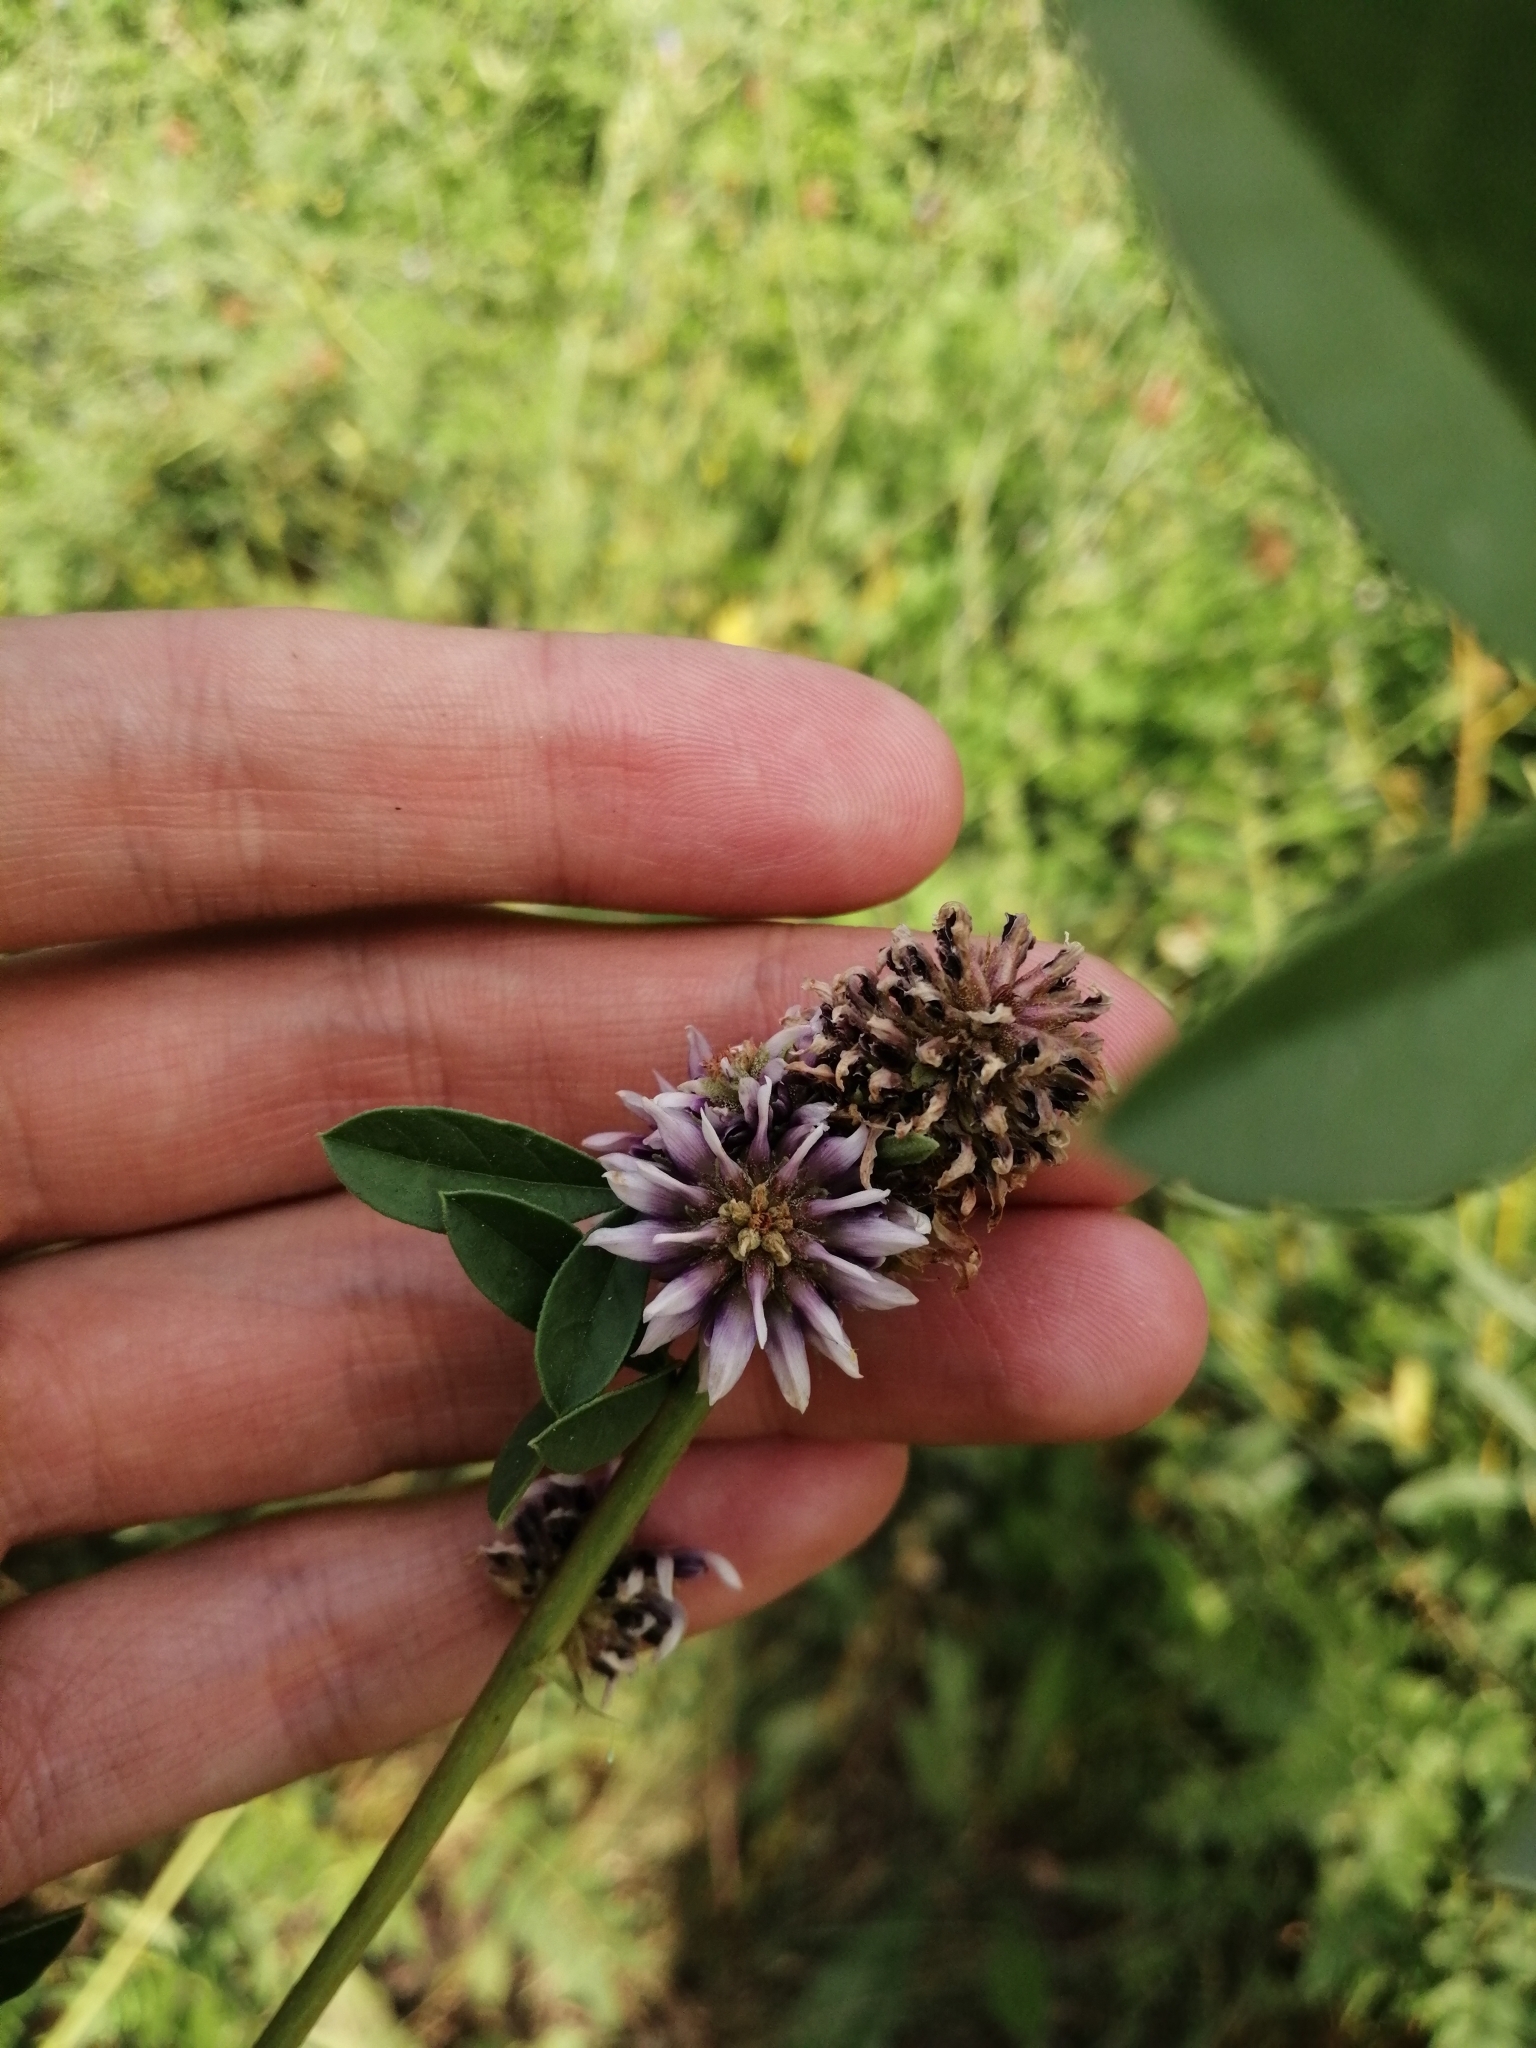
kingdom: Plantae
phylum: Tracheophyta
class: Magnoliopsida
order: Fabales
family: Fabaceae
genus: Glycyrrhiza
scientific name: Glycyrrhiza echinata
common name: German liquorice
